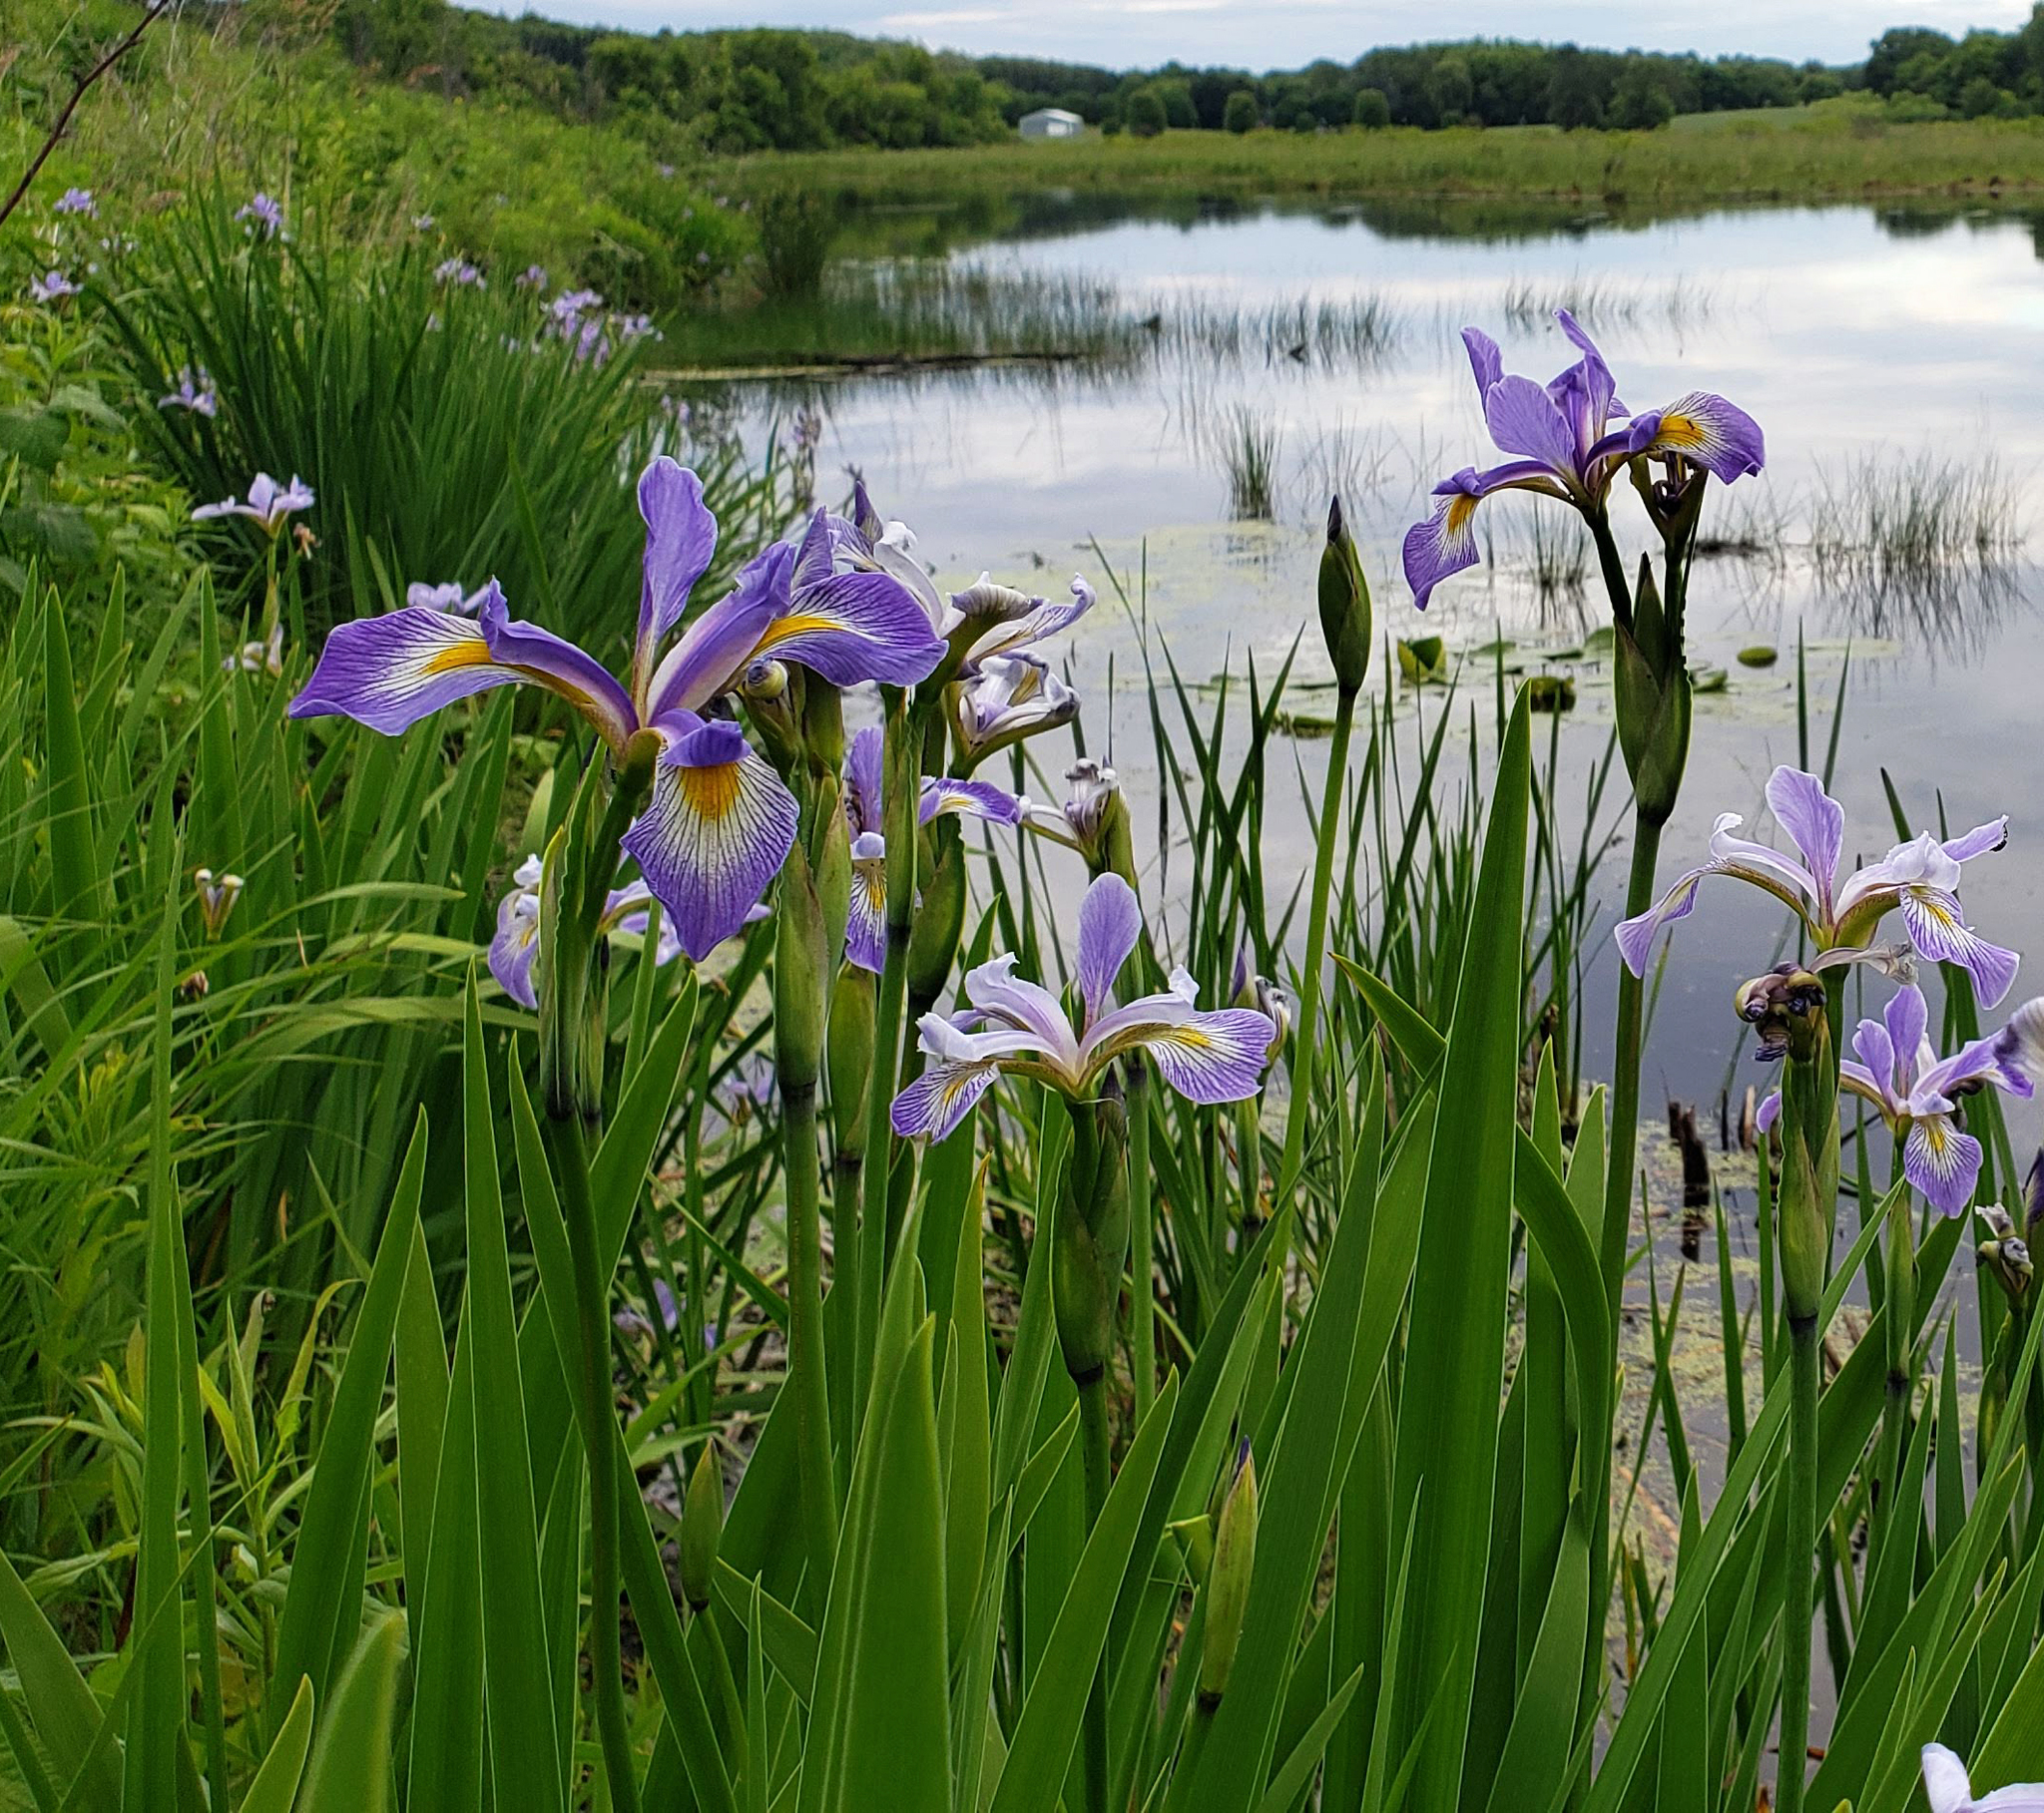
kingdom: Plantae
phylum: Tracheophyta
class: Liliopsida
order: Asparagales
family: Iridaceae
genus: Iris
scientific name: Iris virginica
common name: Southern blue flag
